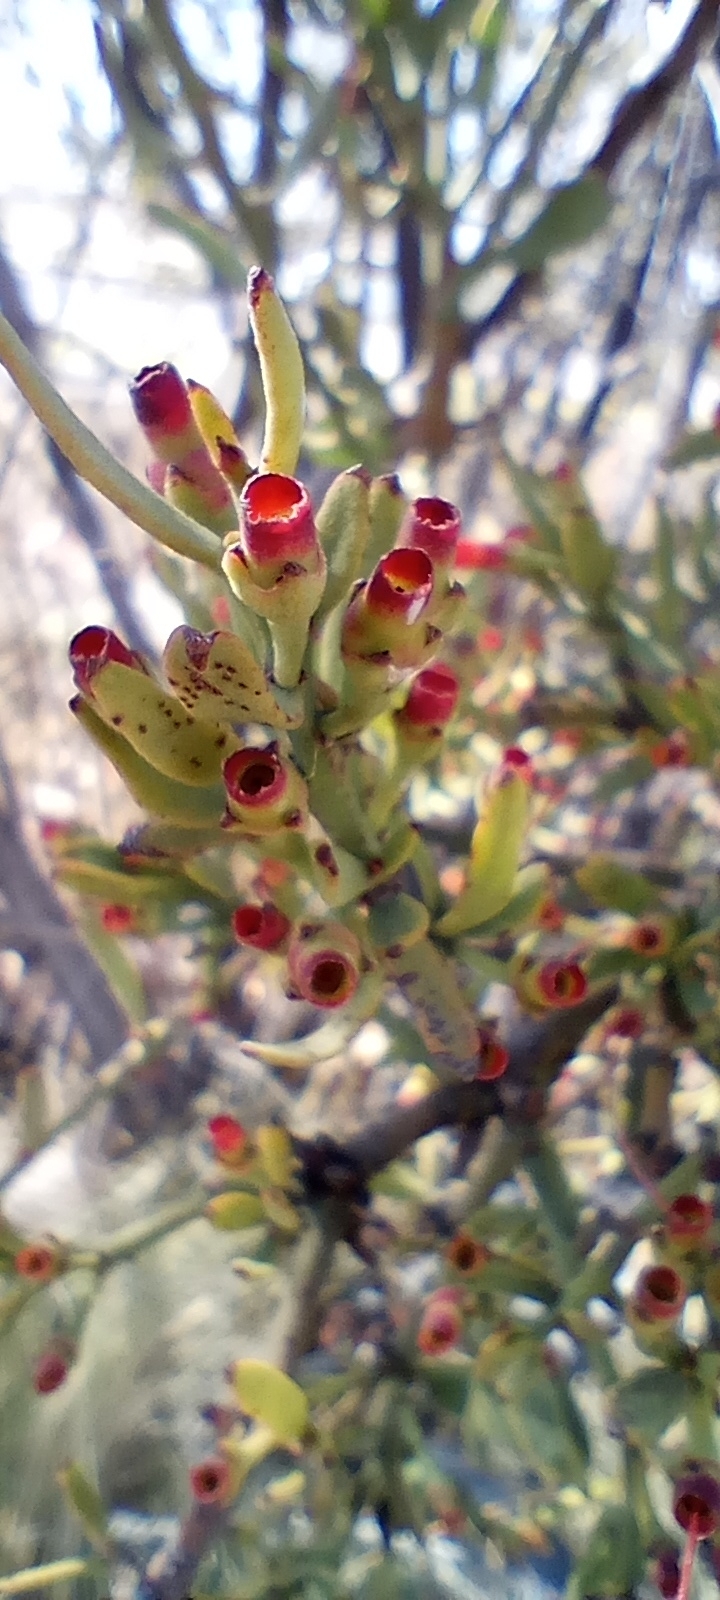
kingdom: Plantae
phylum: Tracheophyta
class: Magnoliopsida
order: Santalales
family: Loranthaceae
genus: Ligaria
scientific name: Ligaria cuneifolia
